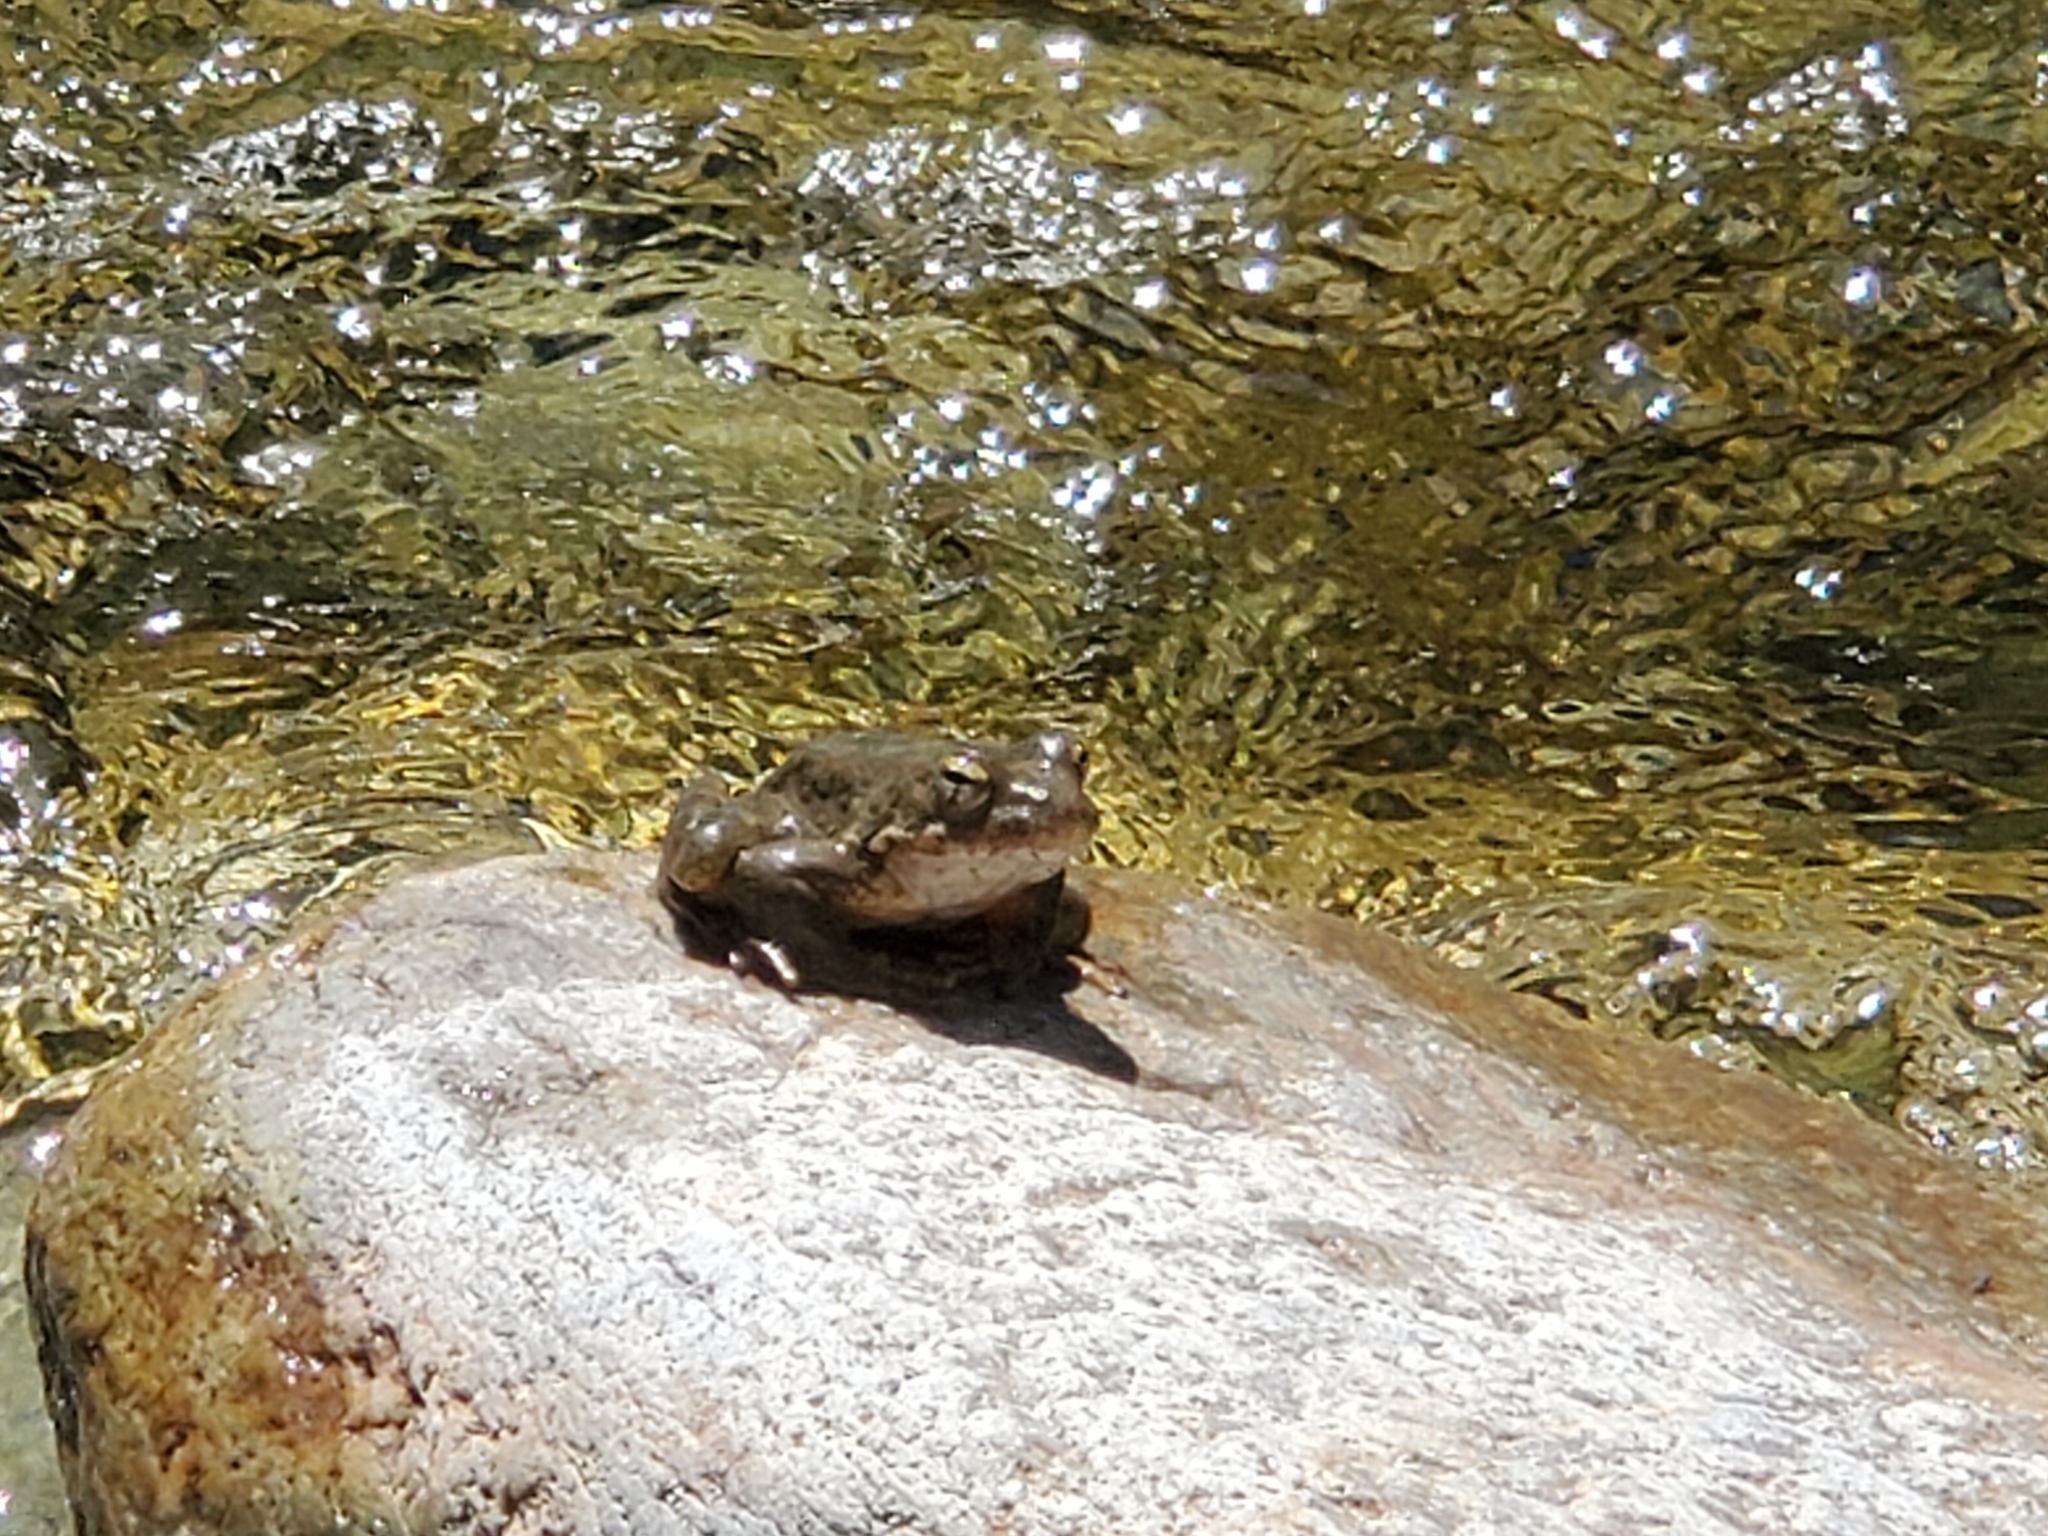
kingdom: Animalia
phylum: Chordata
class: Amphibia
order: Anura
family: Ranidae
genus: Rana
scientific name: Rana boylii
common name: Foothill yellow-legged frog
